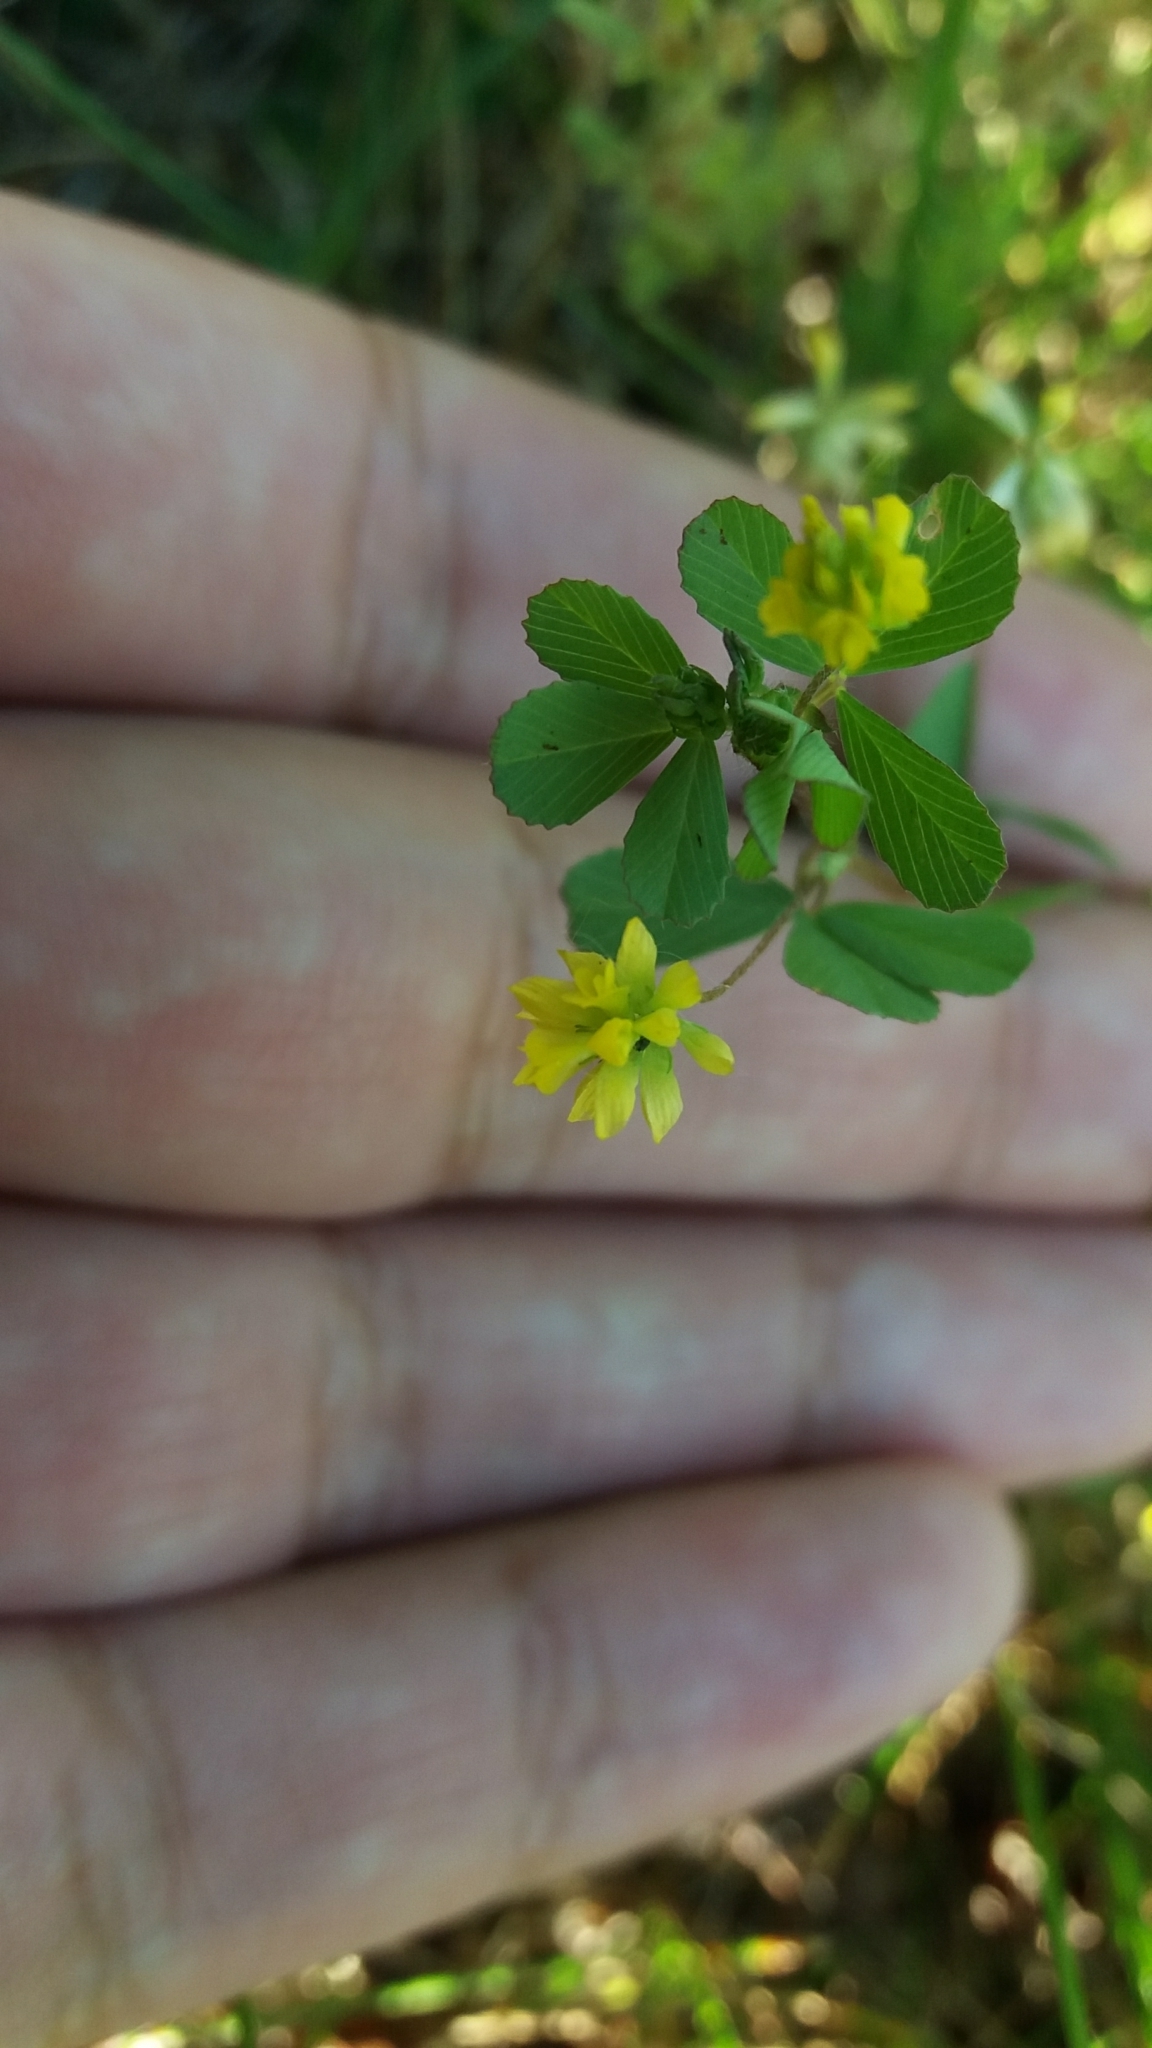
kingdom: Plantae
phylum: Tracheophyta
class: Magnoliopsida
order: Fabales
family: Fabaceae
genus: Trifolium
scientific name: Trifolium dubium
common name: Suckling clover
